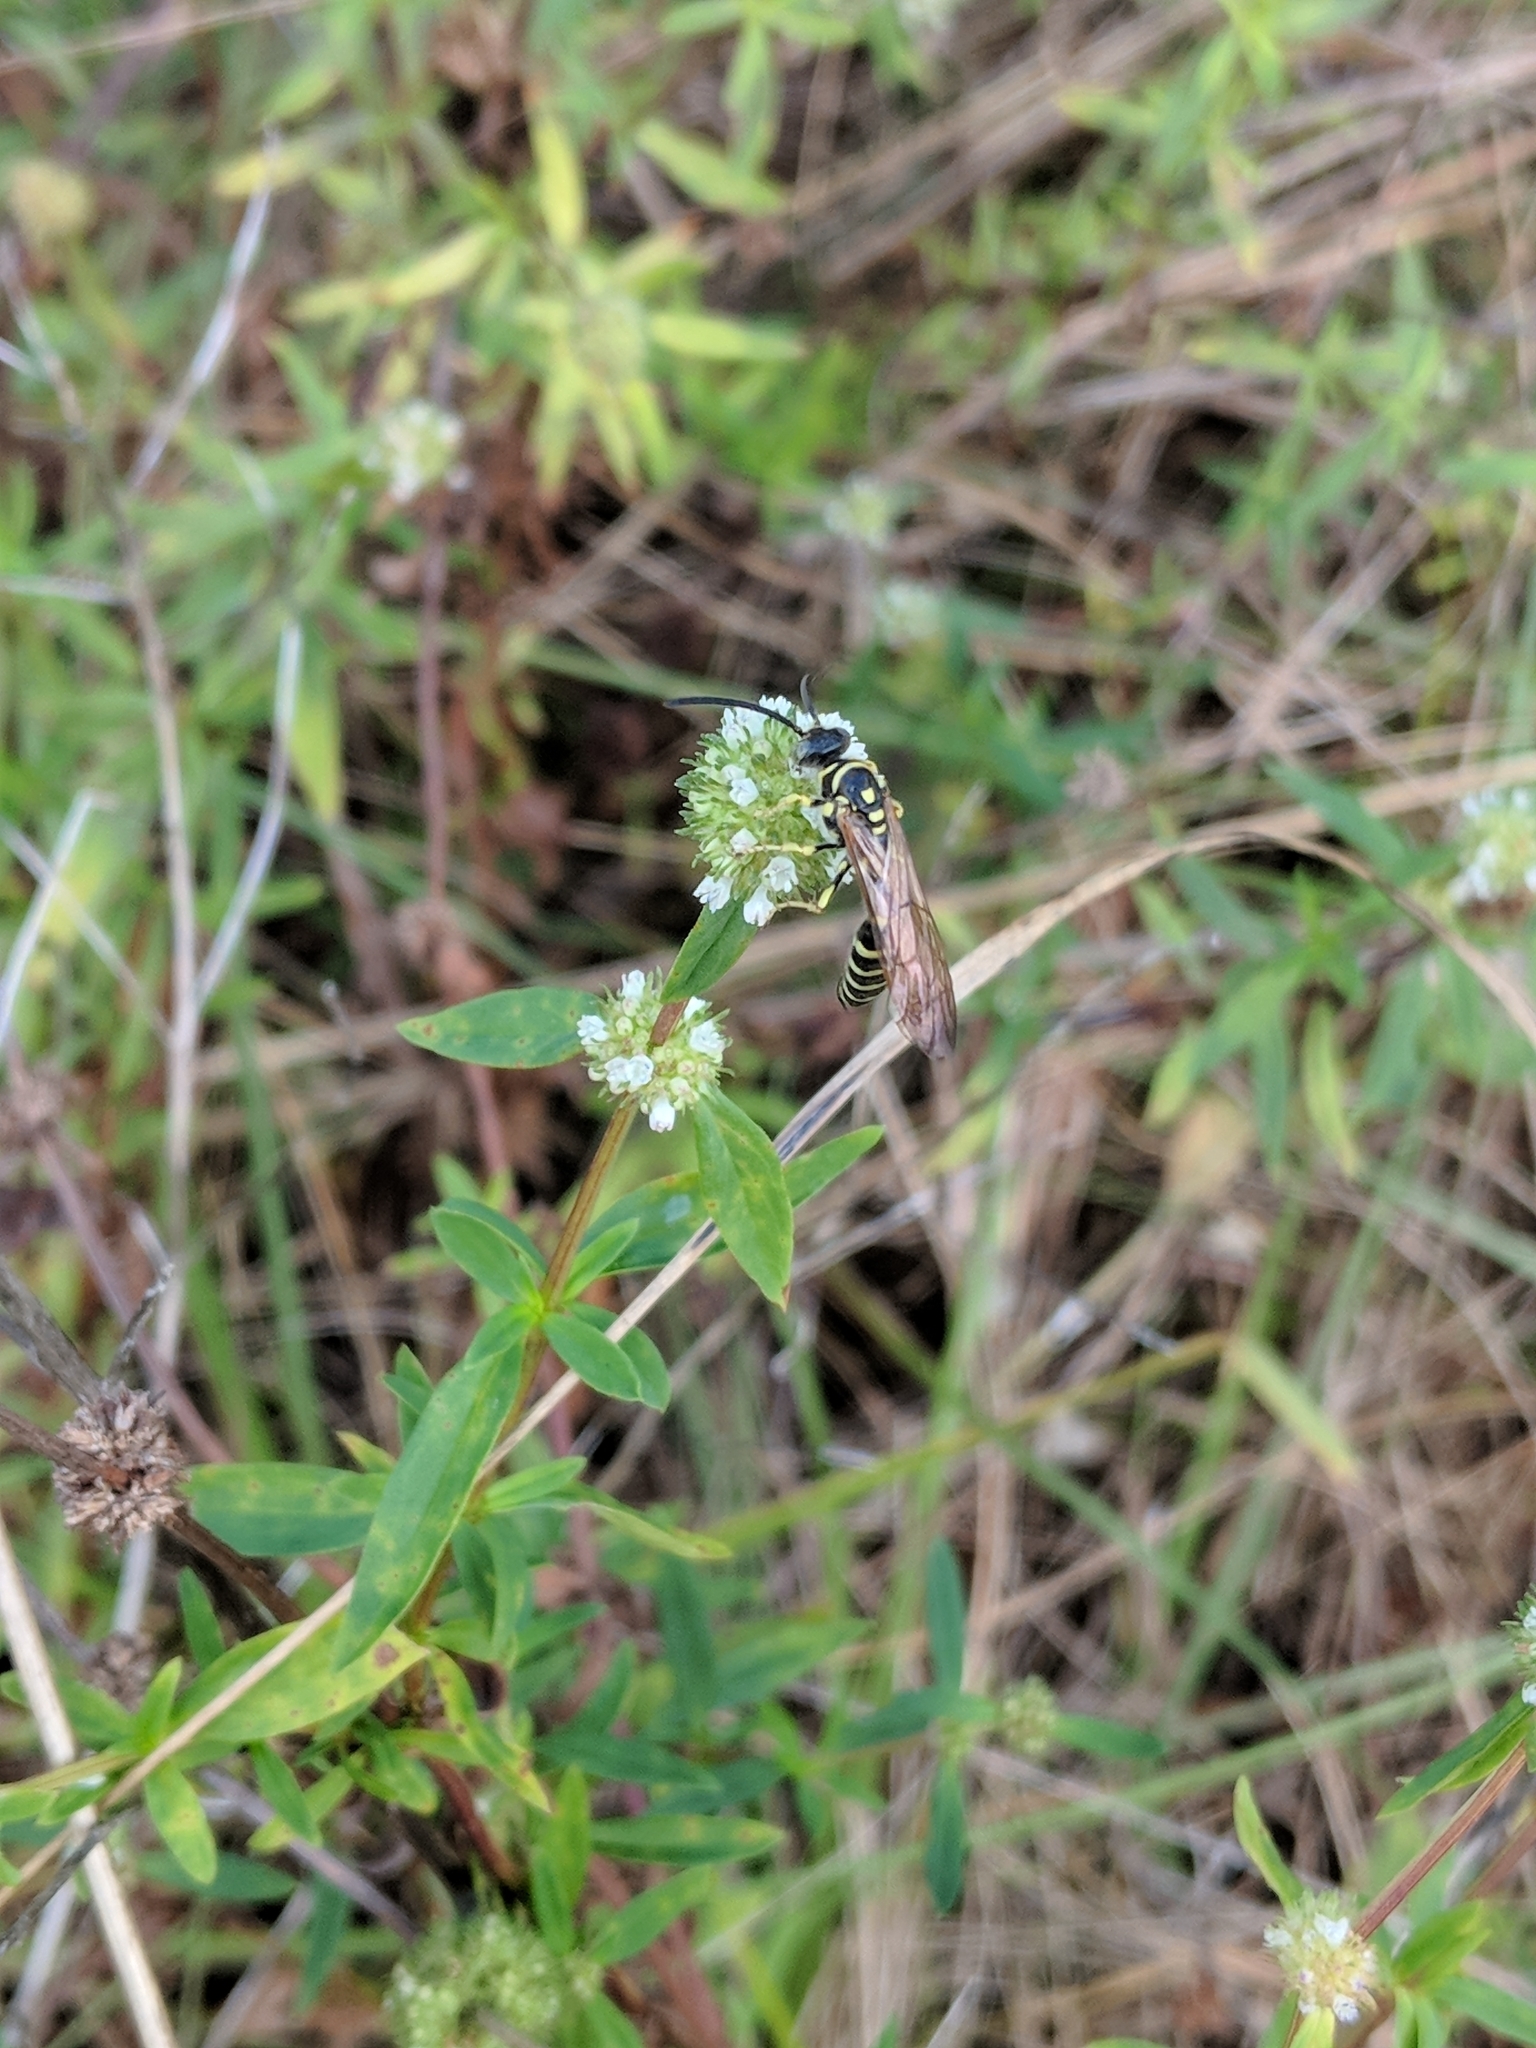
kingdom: Animalia
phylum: Arthropoda
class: Insecta
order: Hymenoptera
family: Tiphiidae
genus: Myzinum
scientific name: Myzinum
